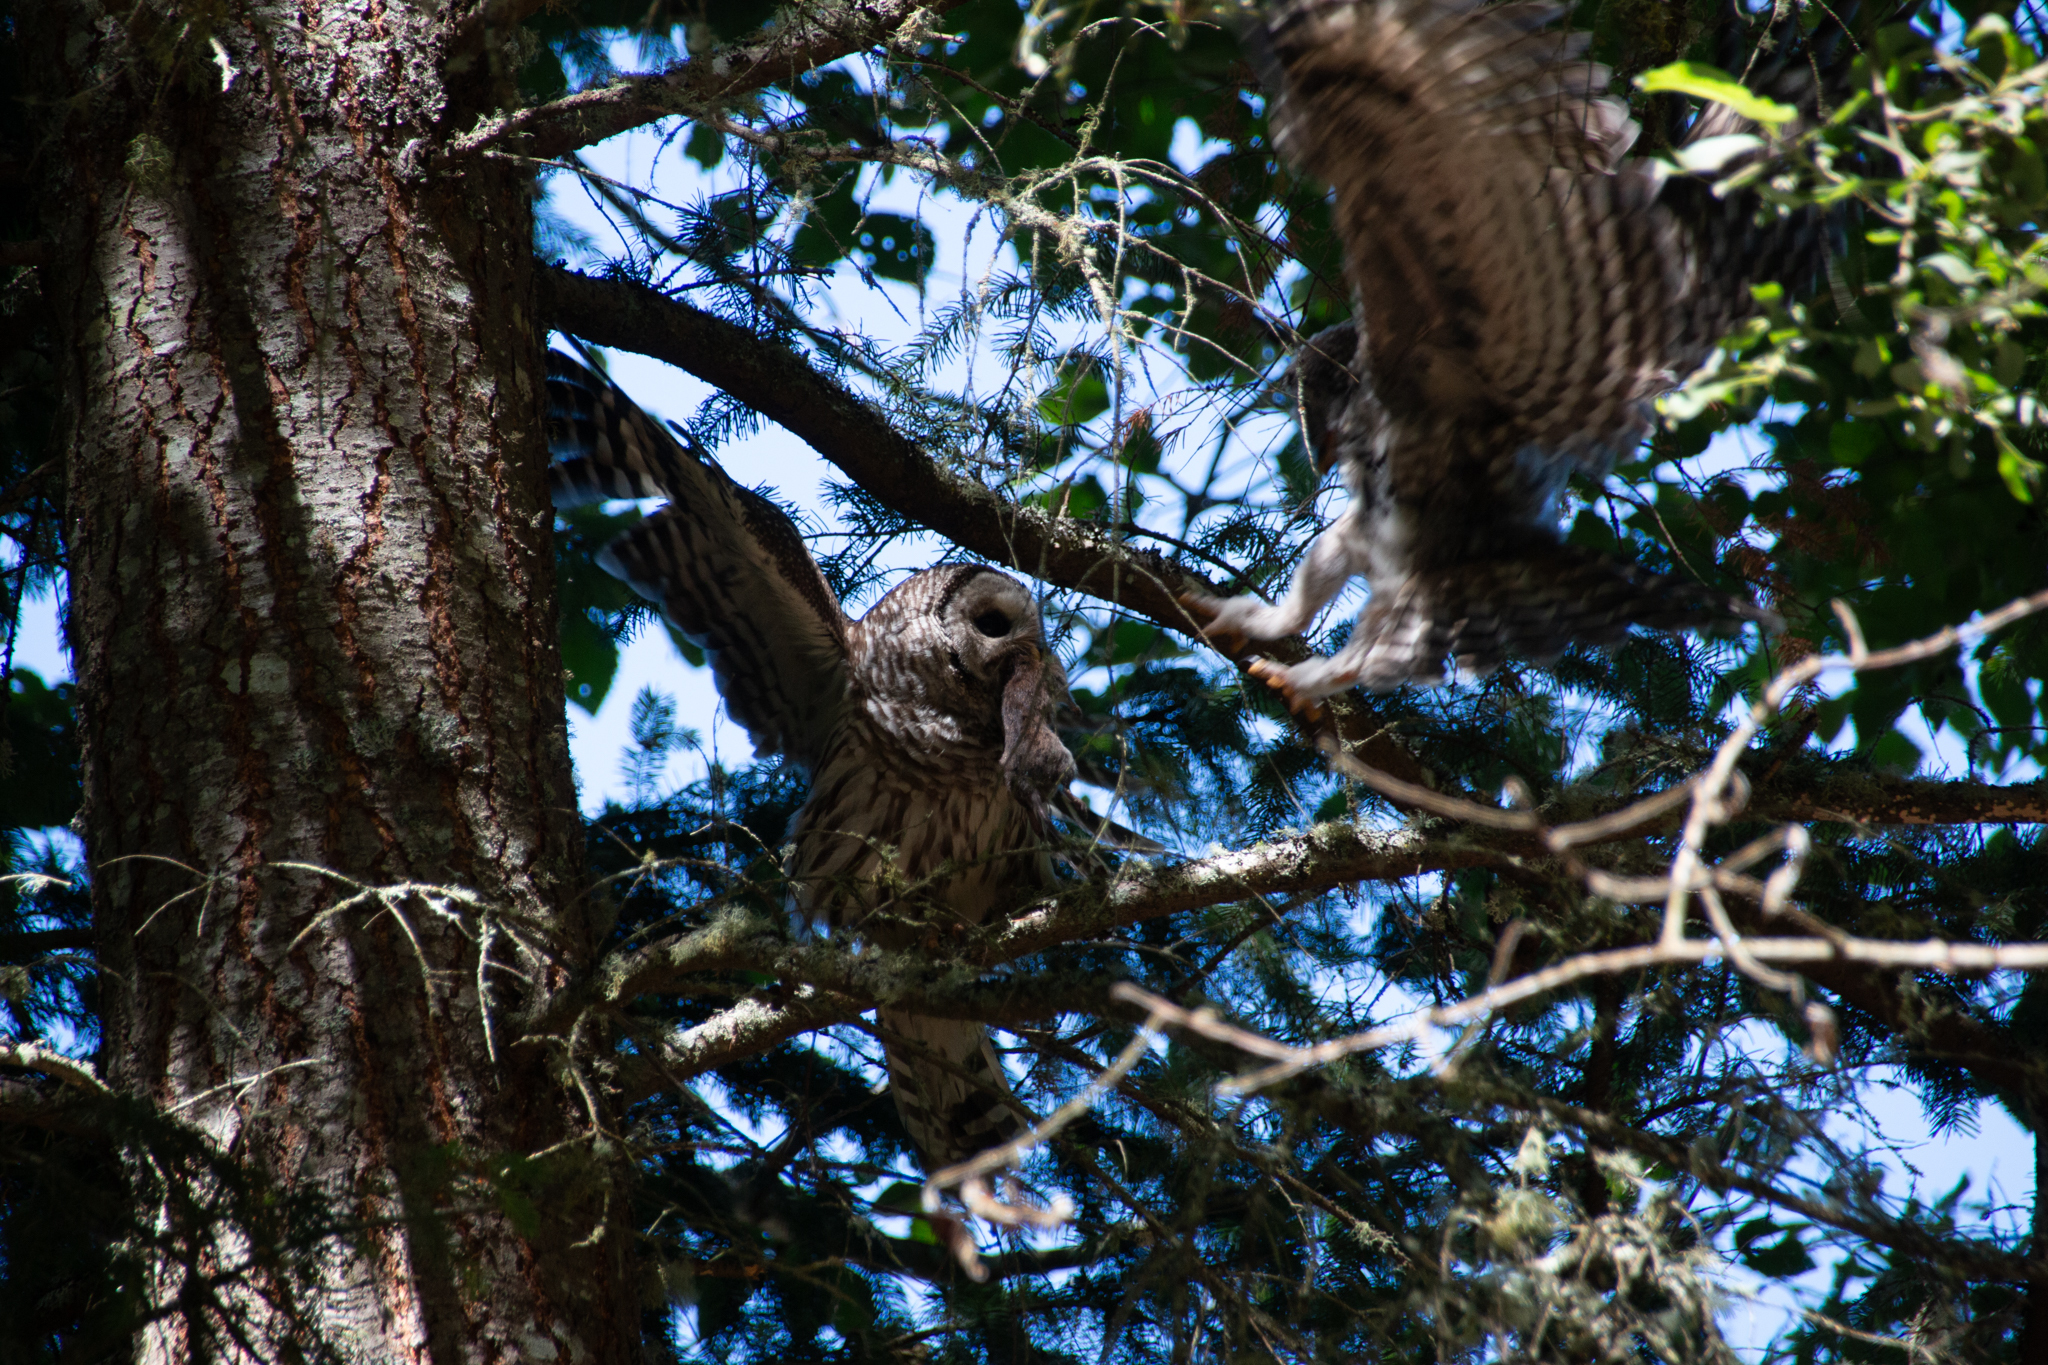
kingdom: Animalia
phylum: Chordata
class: Aves
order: Strigiformes
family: Strigidae
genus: Strix
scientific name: Strix varia
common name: Barred owl
